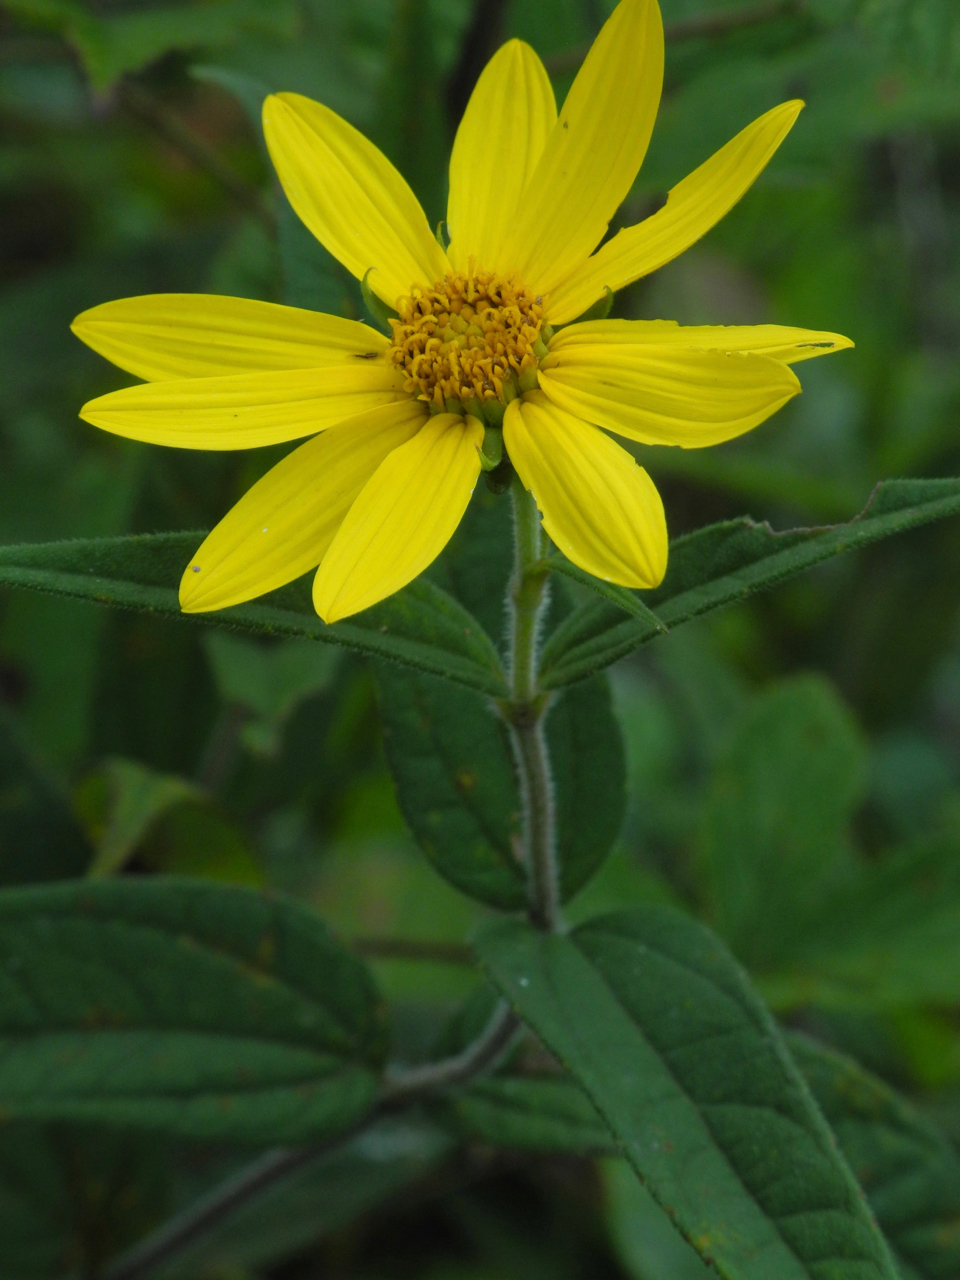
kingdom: Plantae
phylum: Tracheophyta
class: Magnoliopsida
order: Asterales
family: Asteraceae
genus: Helianthus
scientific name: Helianthus hirsutus
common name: Hairy sunflower
